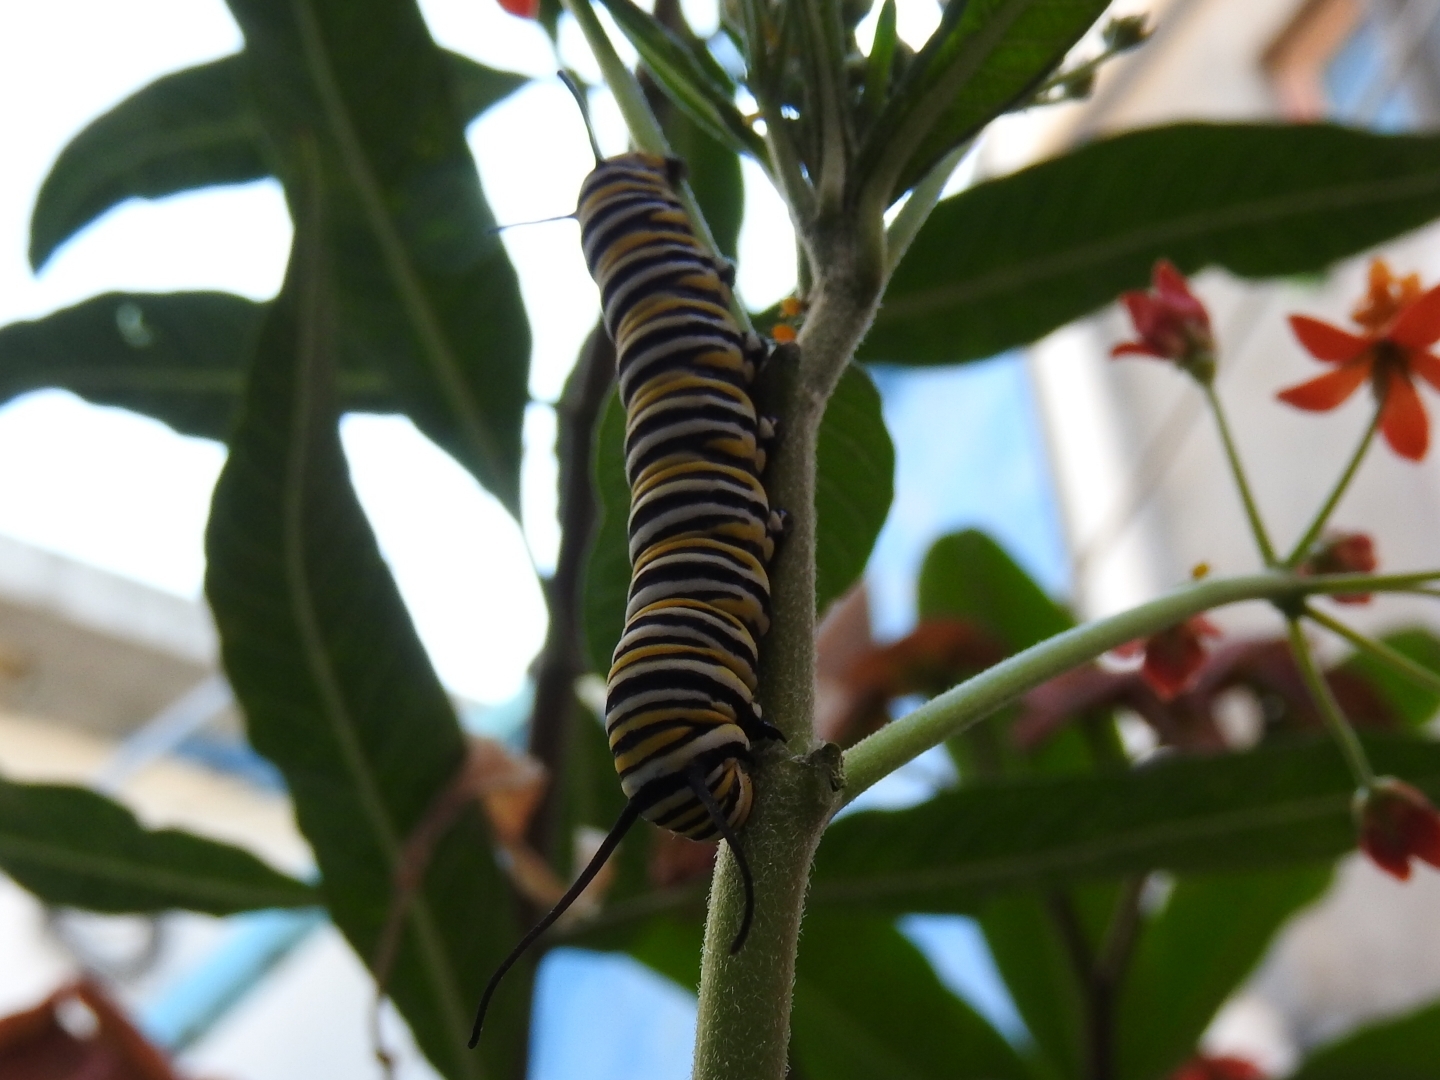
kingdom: Animalia
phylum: Arthropoda
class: Insecta
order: Lepidoptera
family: Nymphalidae
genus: Danaus
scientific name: Danaus plexippus
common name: Monarch
